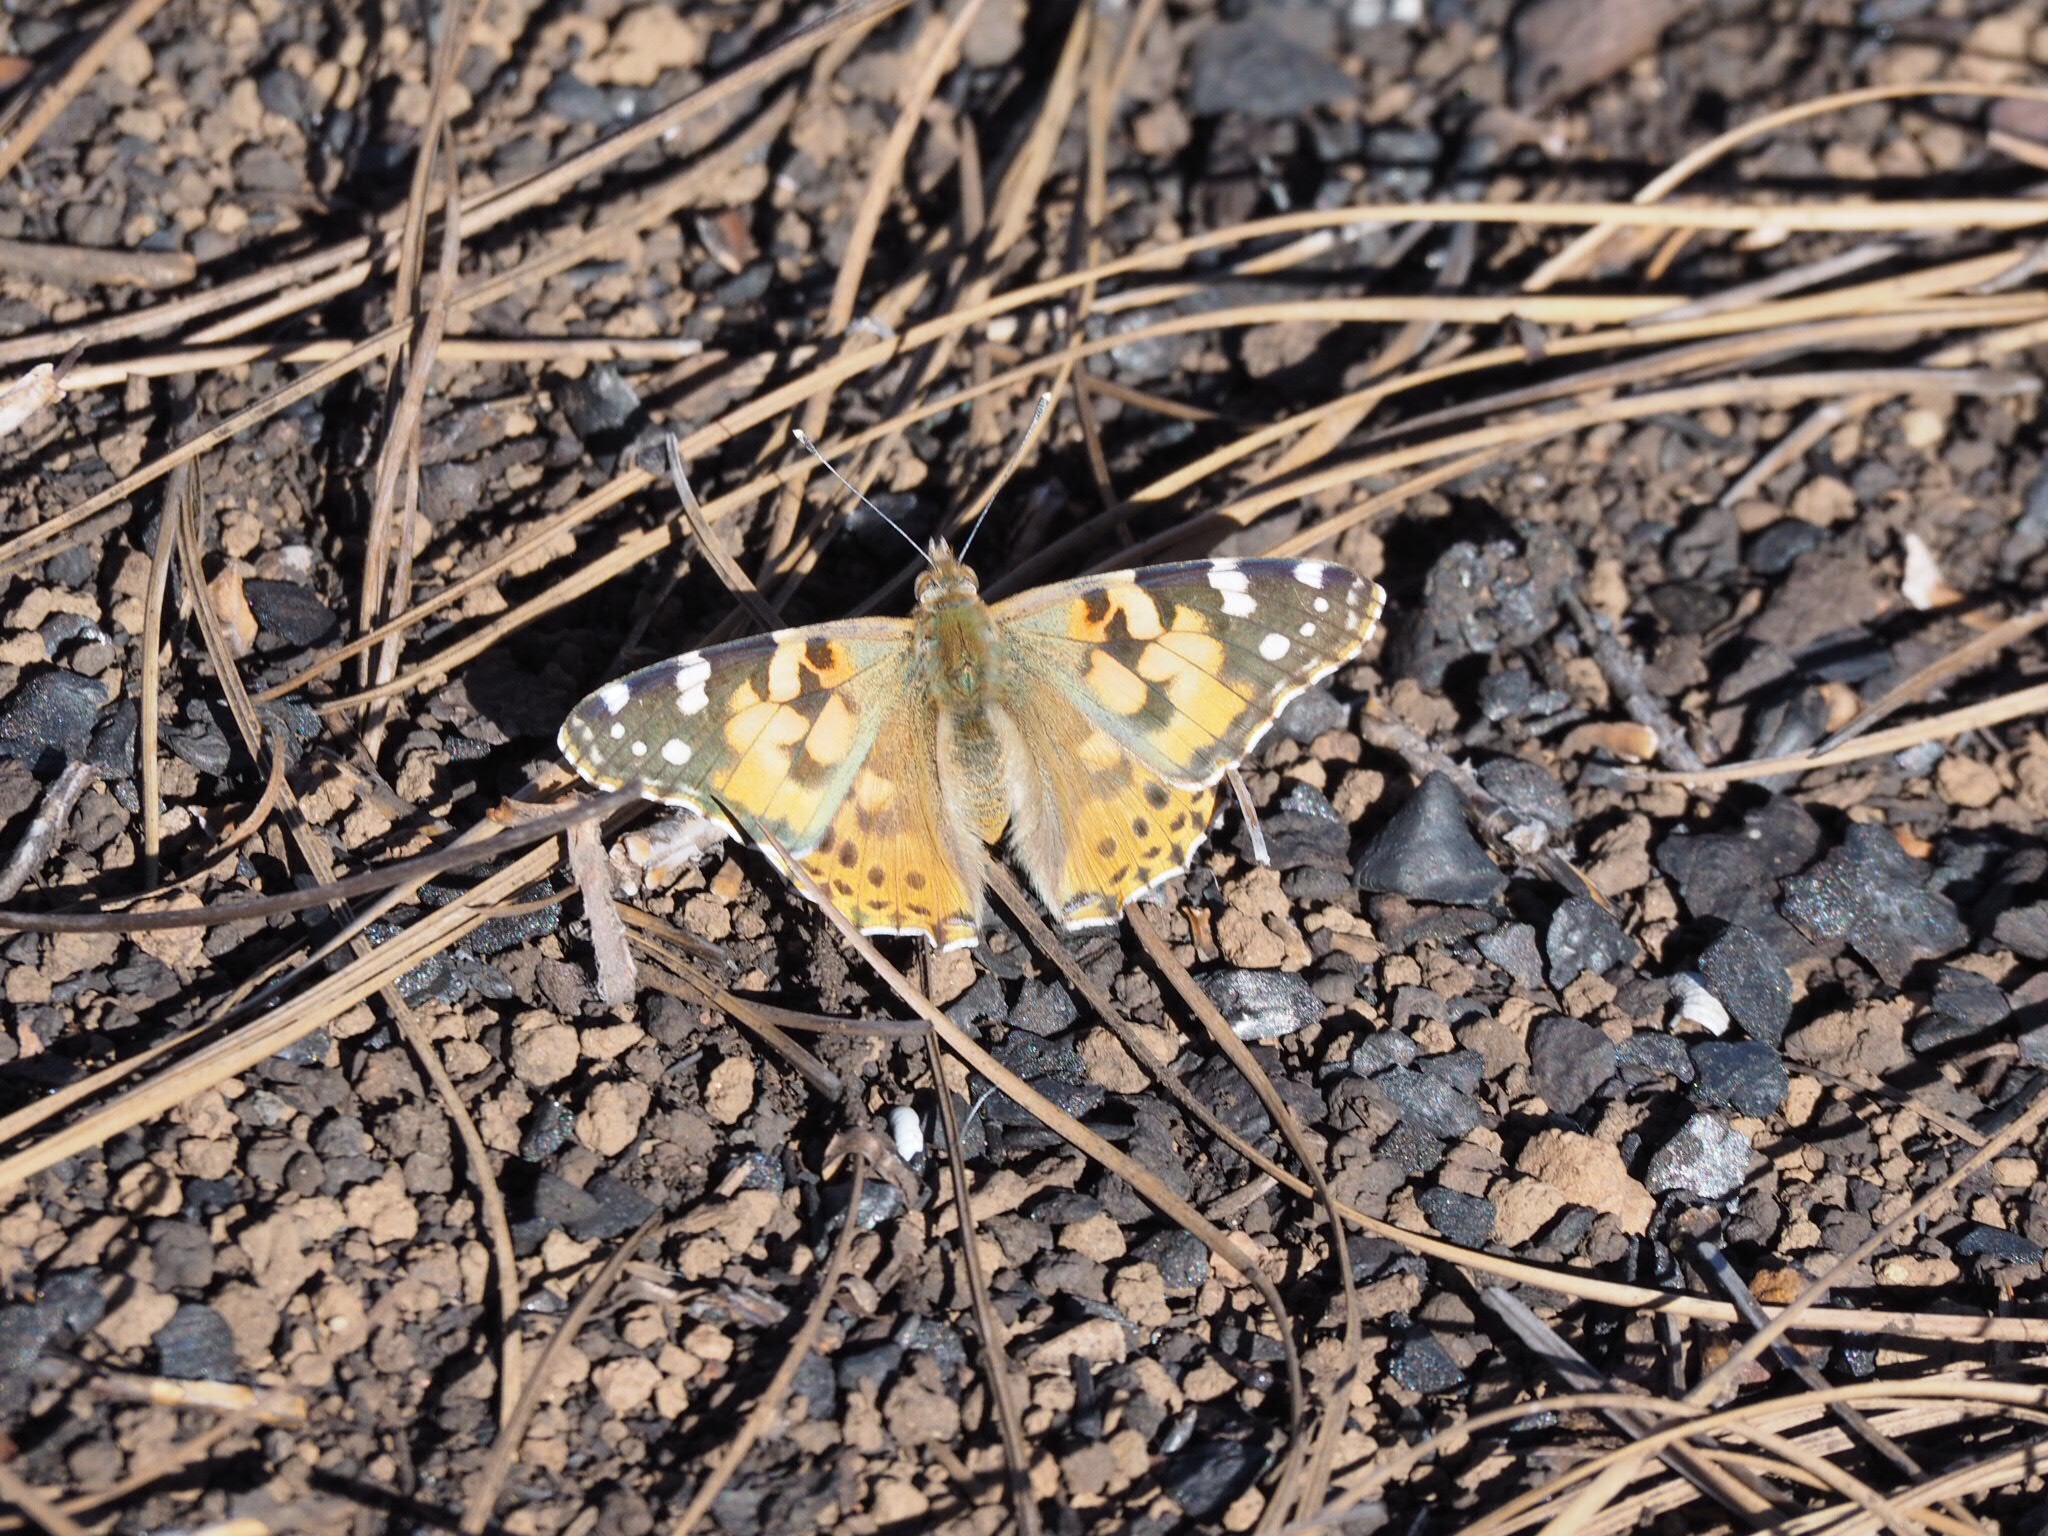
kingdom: Animalia
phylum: Arthropoda
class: Insecta
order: Lepidoptera
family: Nymphalidae
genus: Vanessa
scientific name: Vanessa cardui
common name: Painted lady
